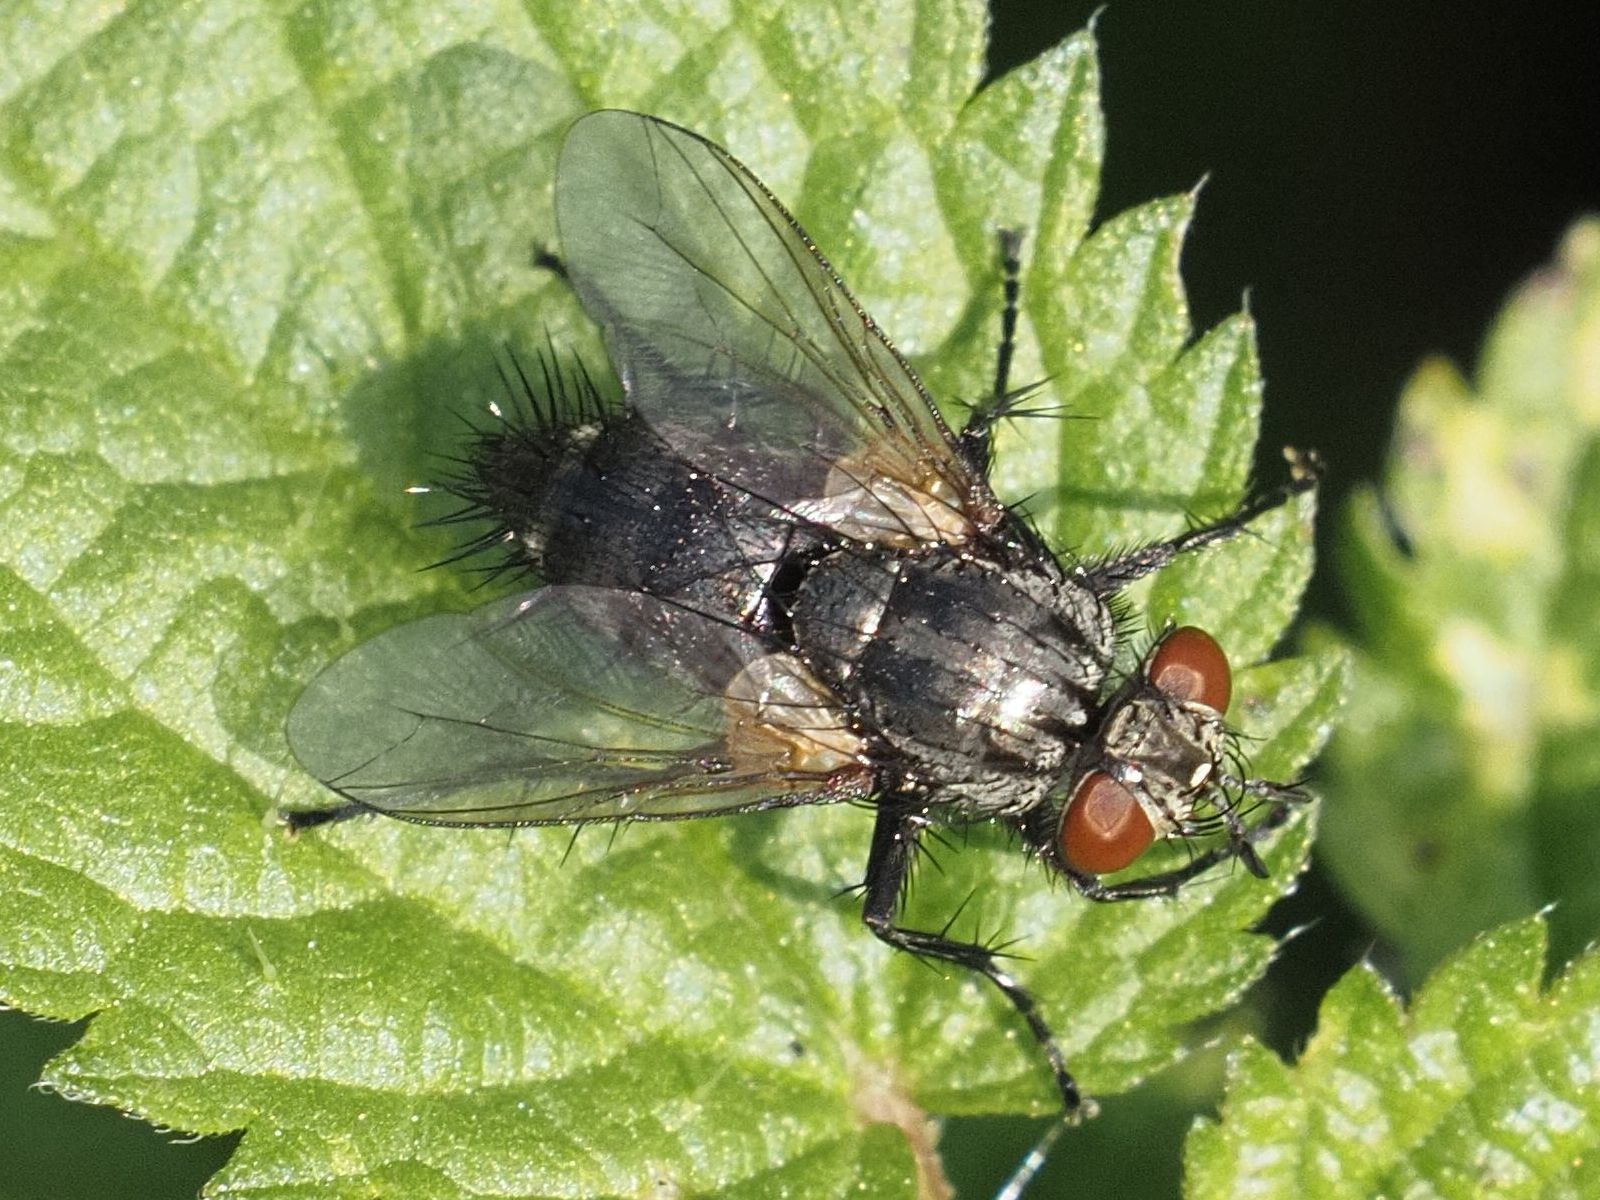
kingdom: Animalia
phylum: Arthropoda
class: Insecta
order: Diptera
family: Tachinidae
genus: Voria
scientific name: Voria ruralis
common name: Parasitic fly
